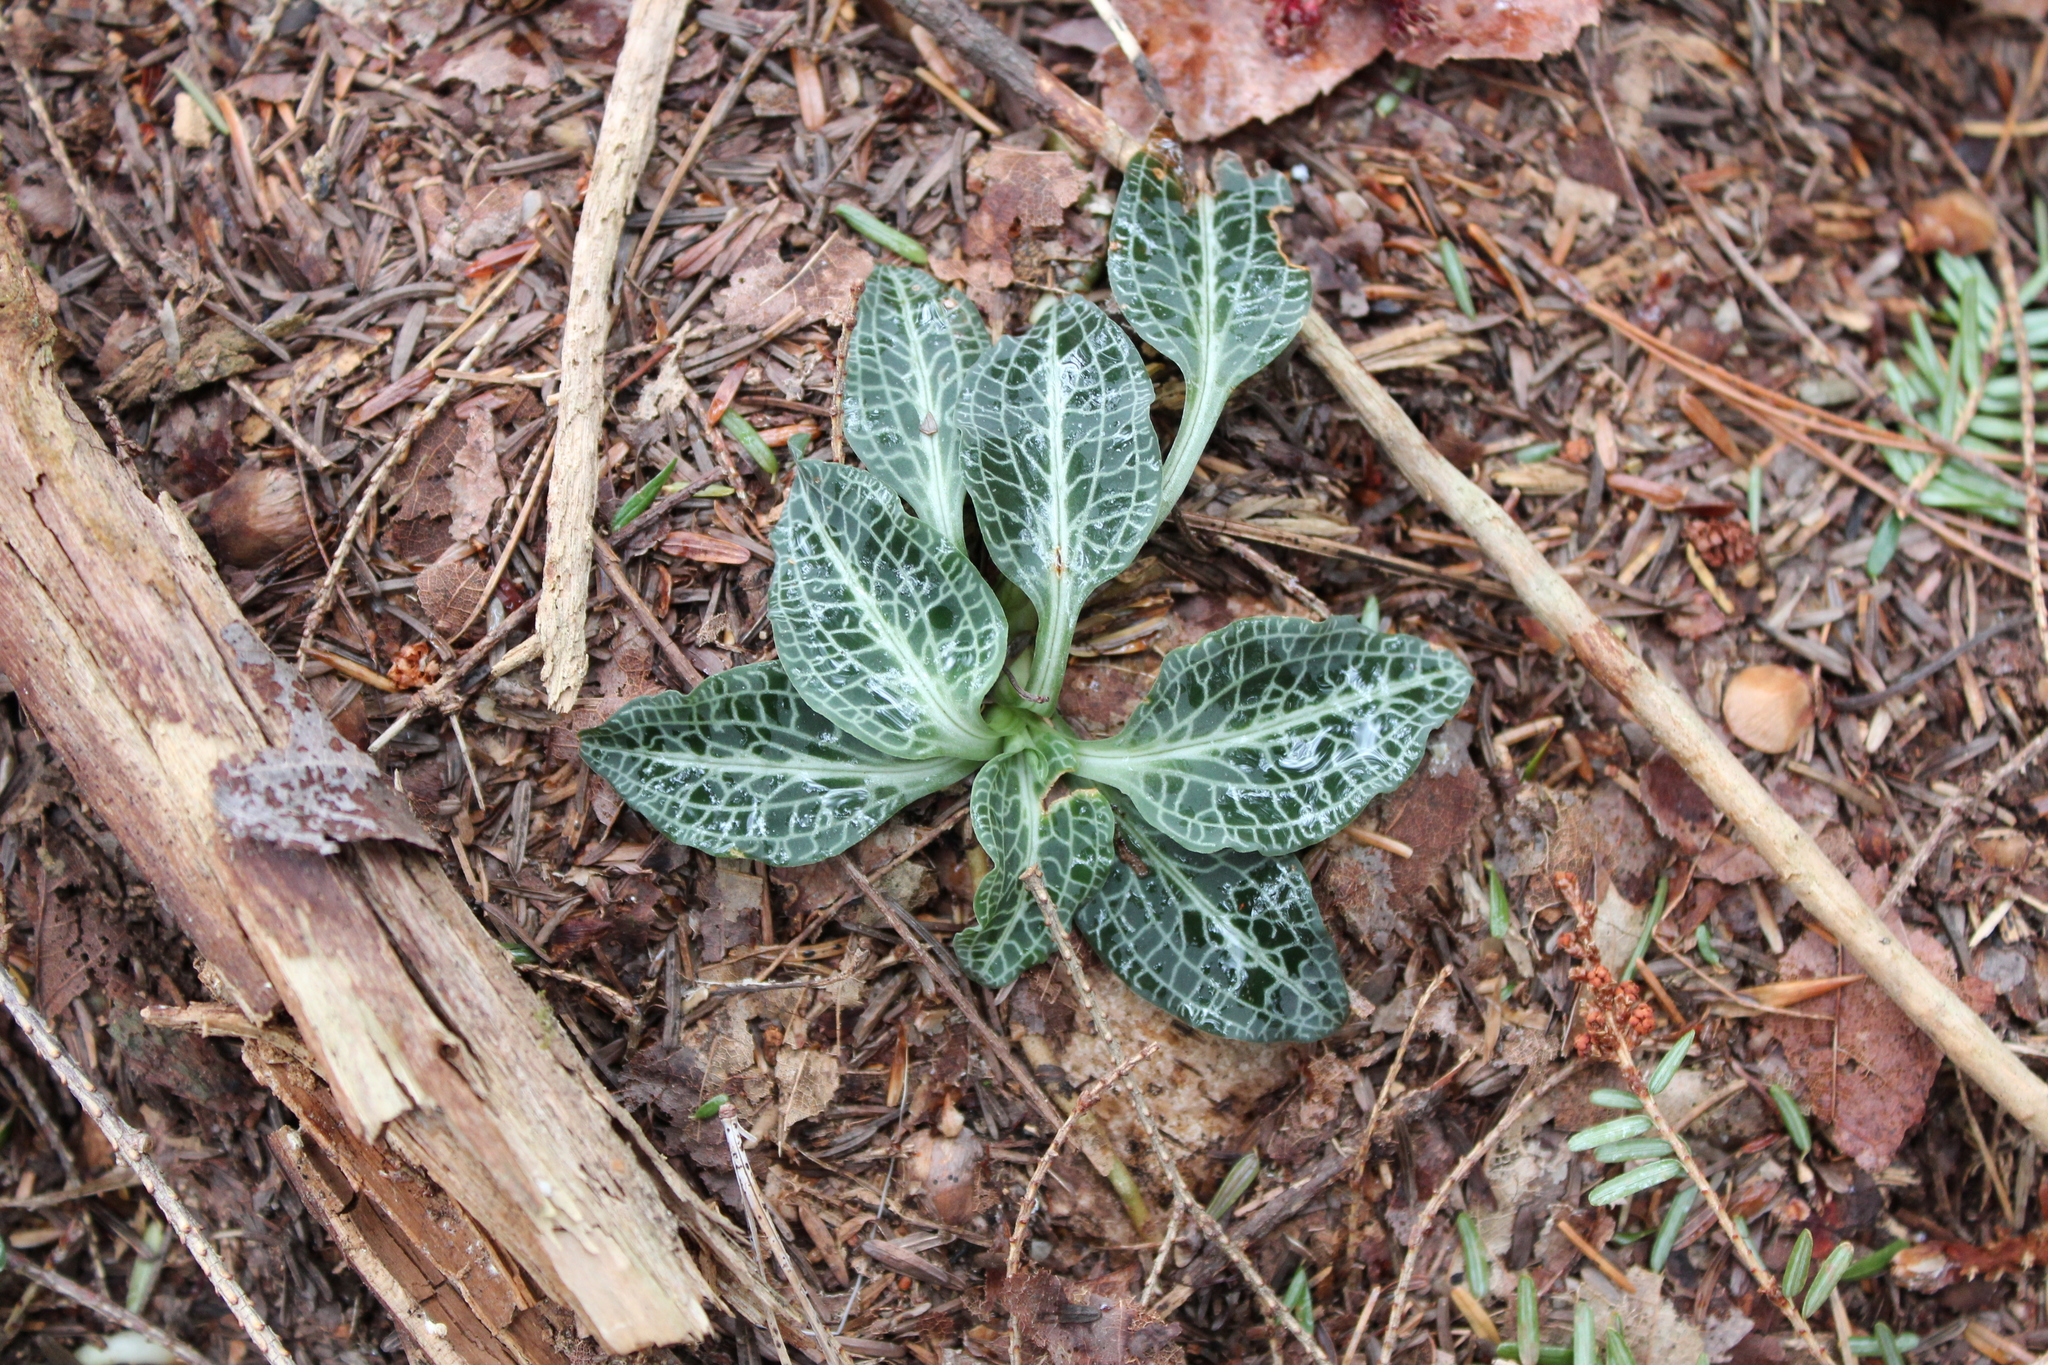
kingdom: Plantae
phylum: Tracheophyta
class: Liliopsida
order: Asparagales
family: Orchidaceae
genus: Goodyera
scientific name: Goodyera pubescens
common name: Downy rattlesnake-plantain
